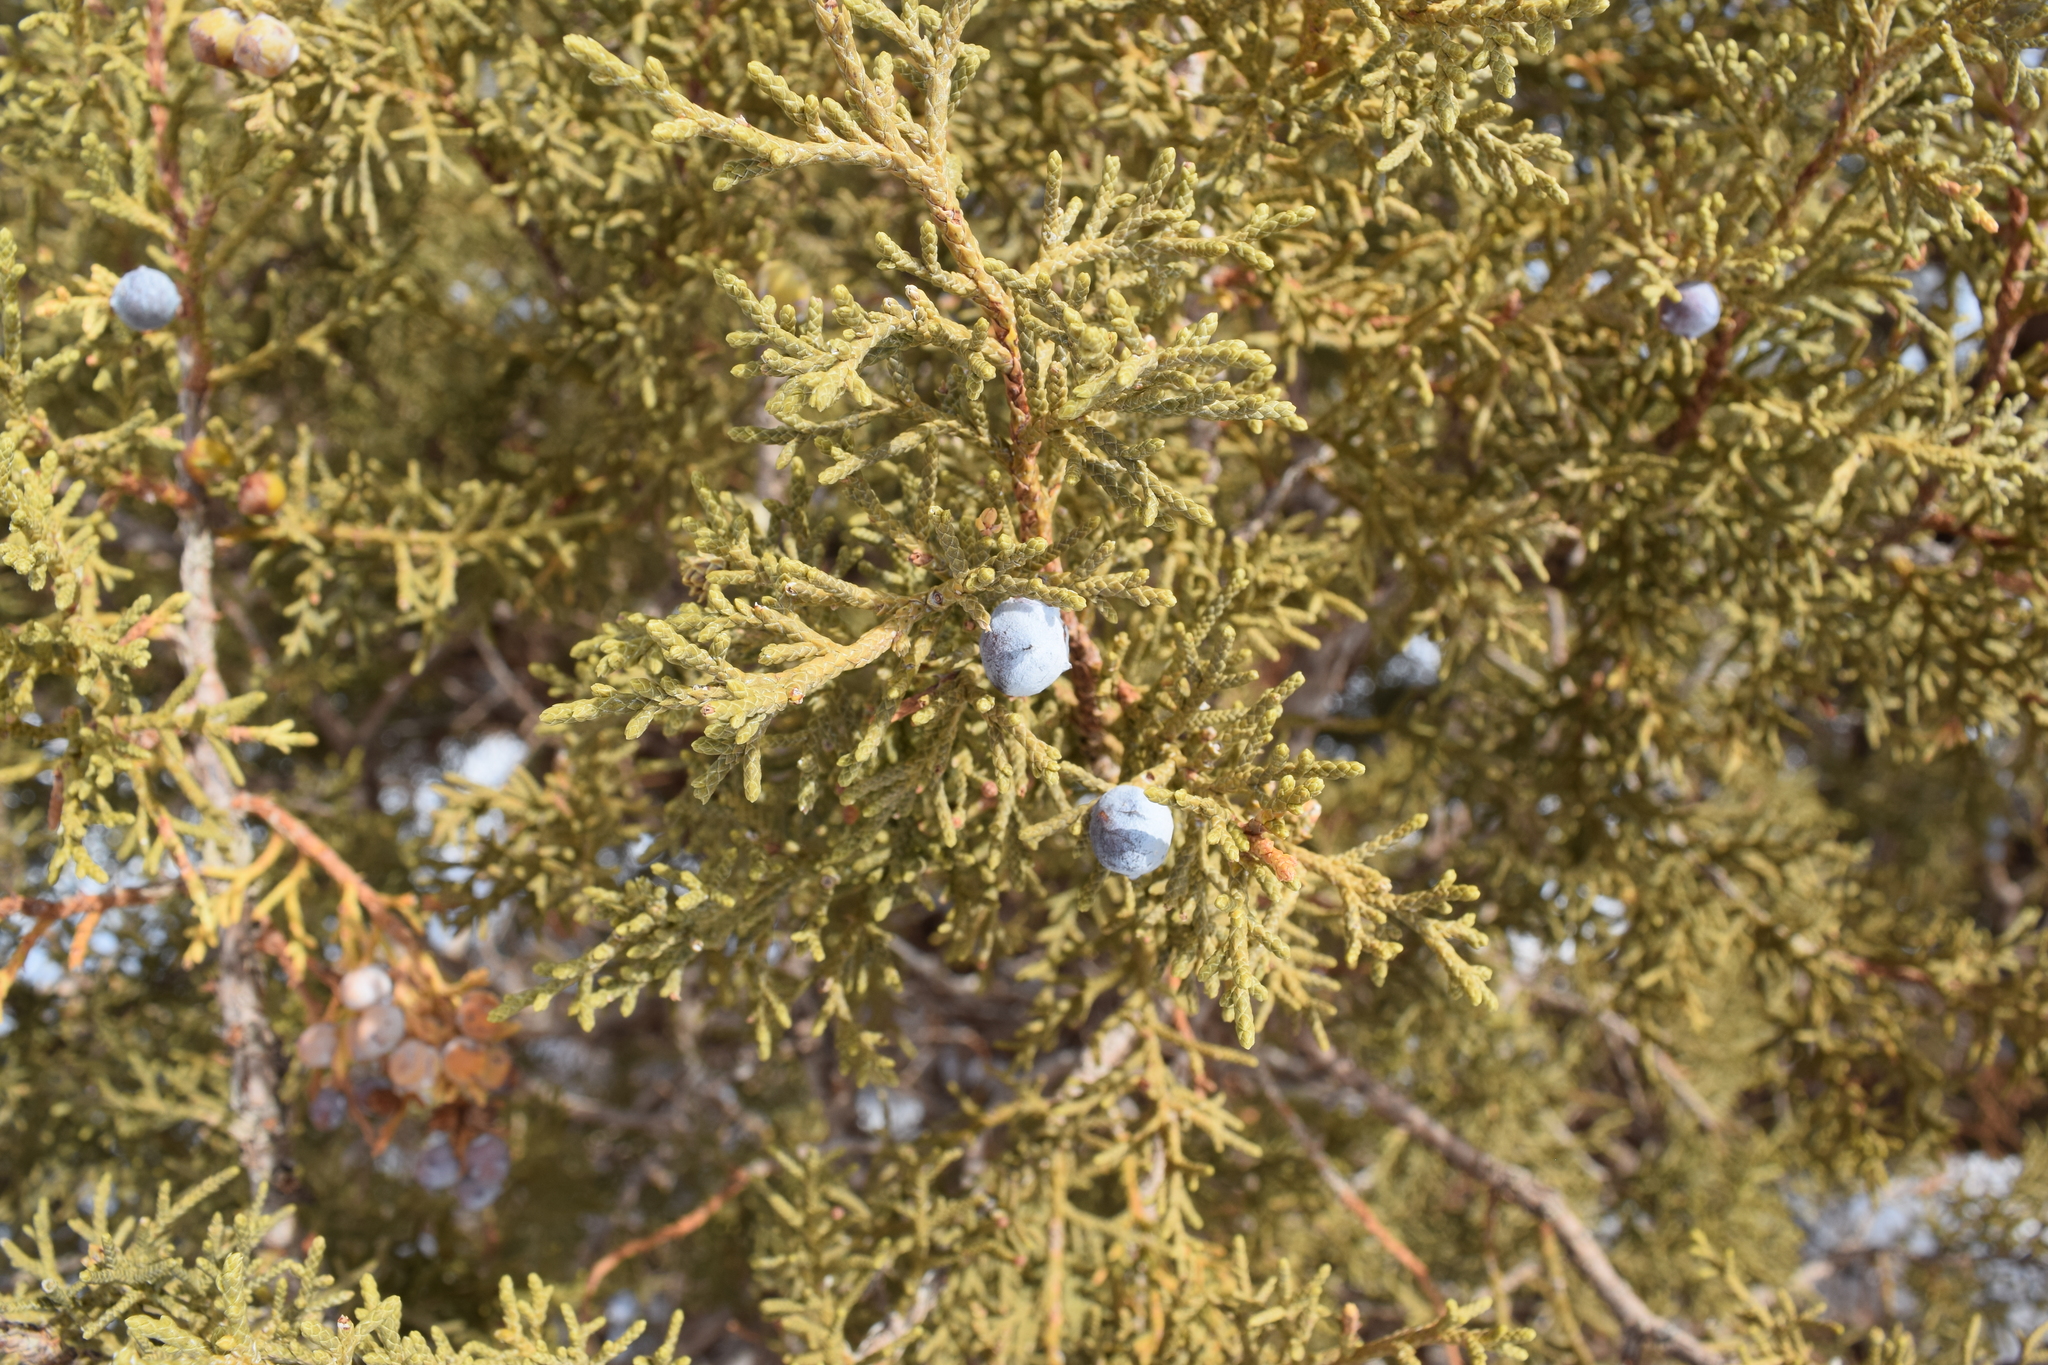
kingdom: Plantae
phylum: Tracheophyta
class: Pinopsida
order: Pinales
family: Cupressaceae
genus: Juniperus
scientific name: Juniperus osteosperma
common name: Utah juniper
